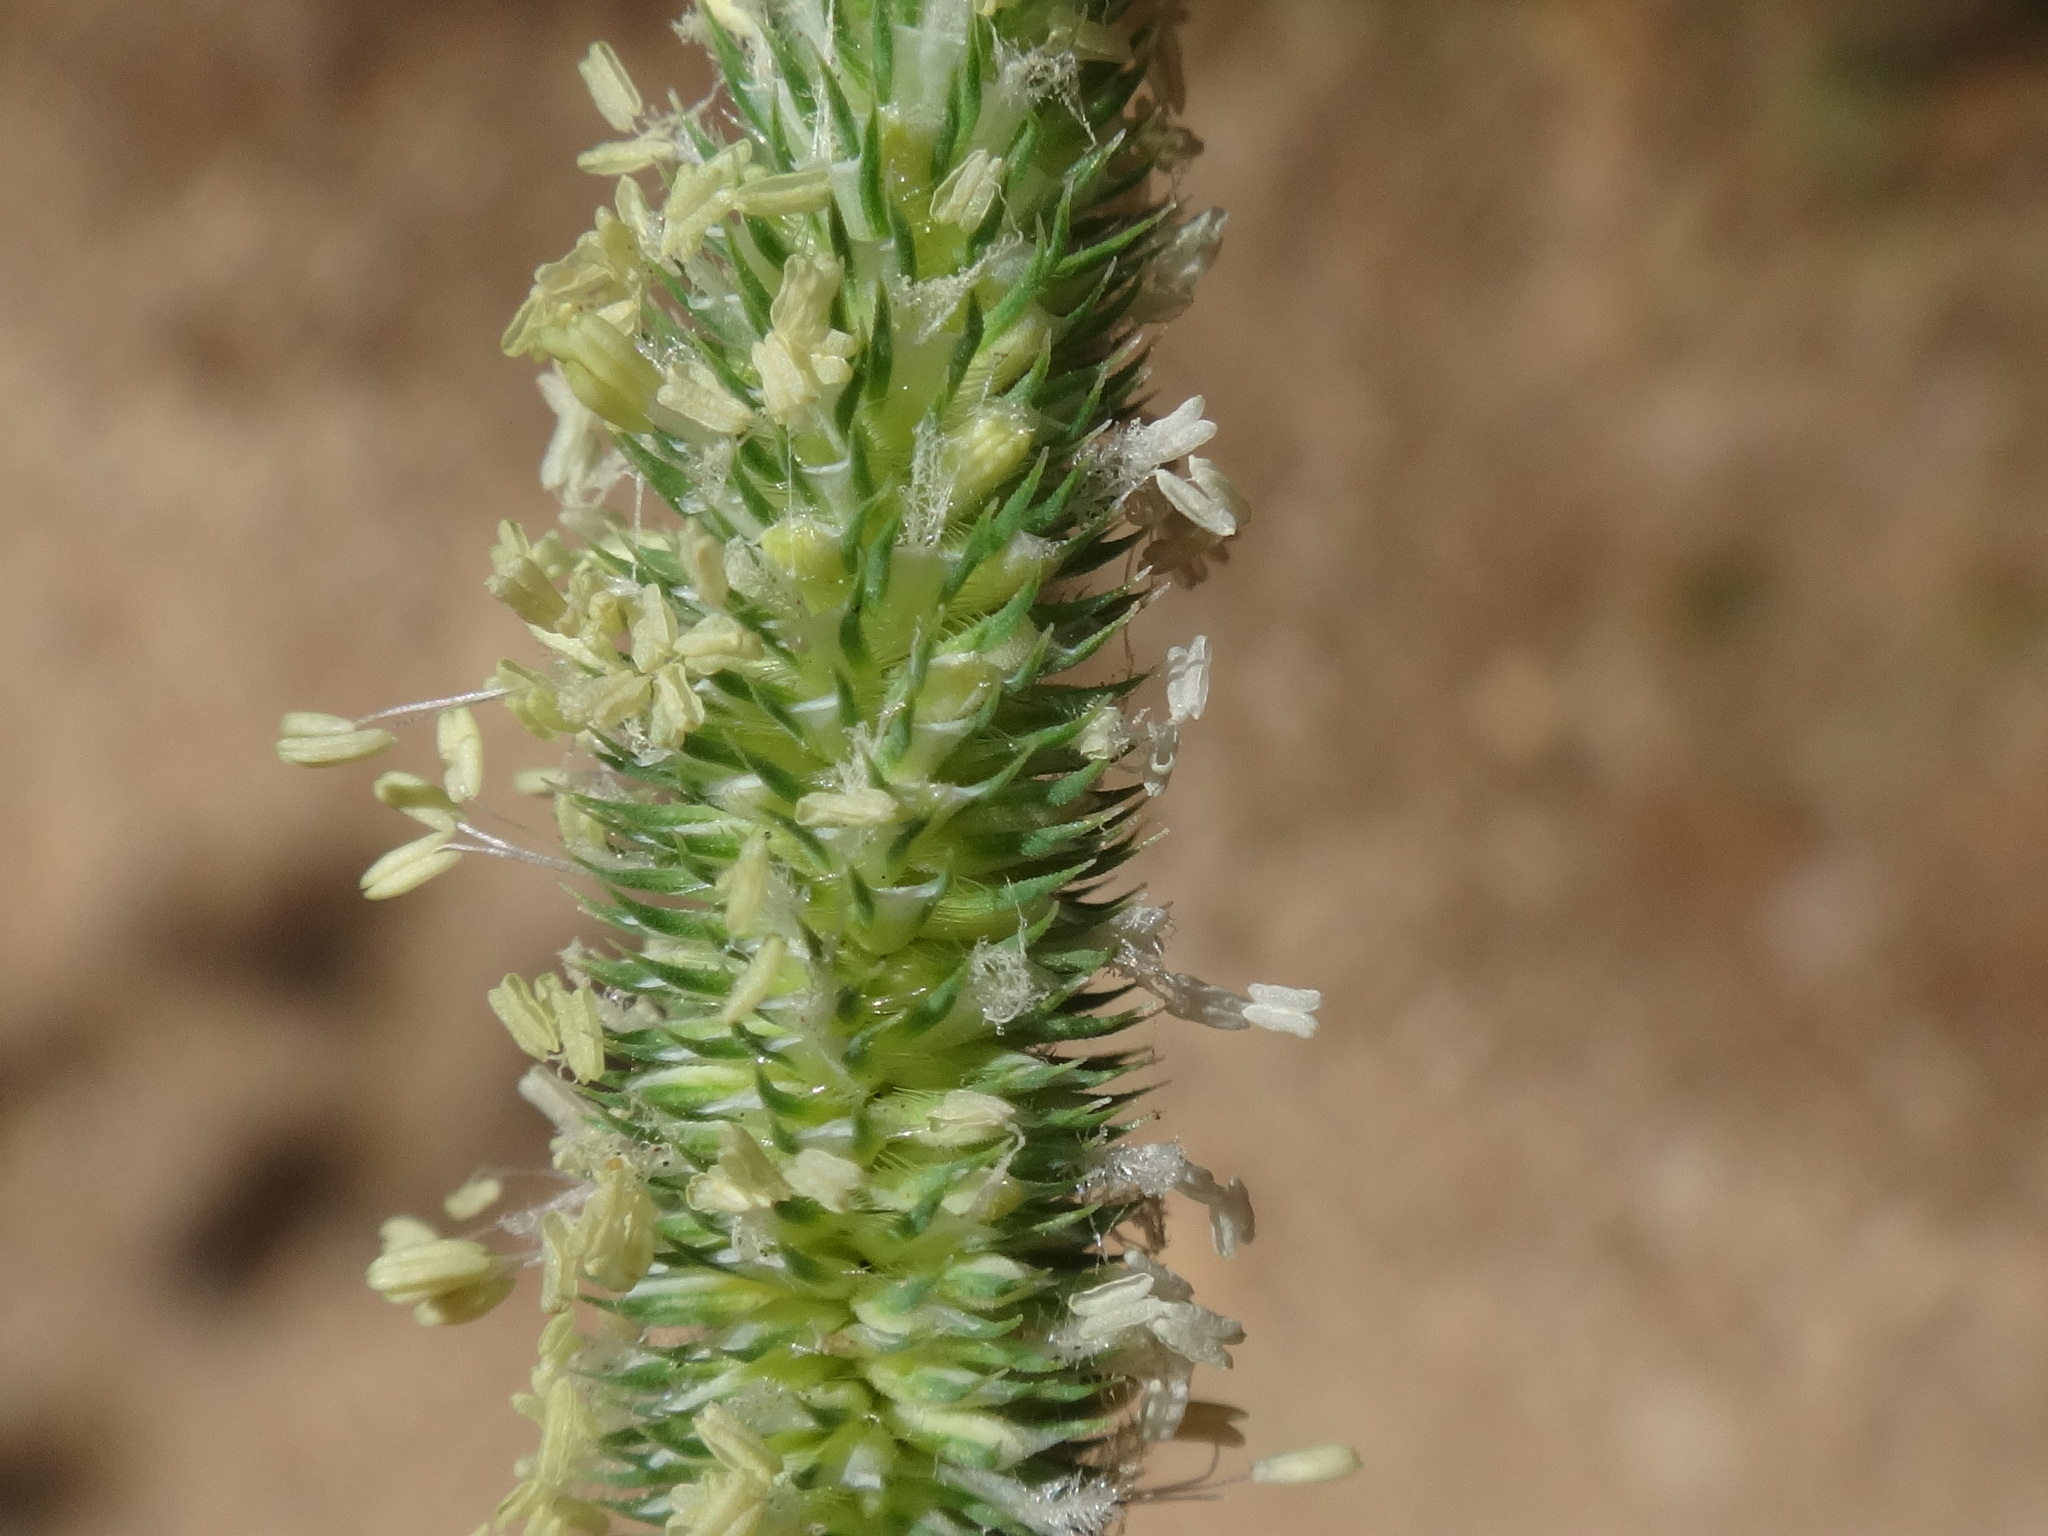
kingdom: Plantae
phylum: Tracheophyta
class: Liliopsida
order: Poales
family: Poaceae
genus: Phleum
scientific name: Phleum bertolonii
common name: Smaller cat's-tail
